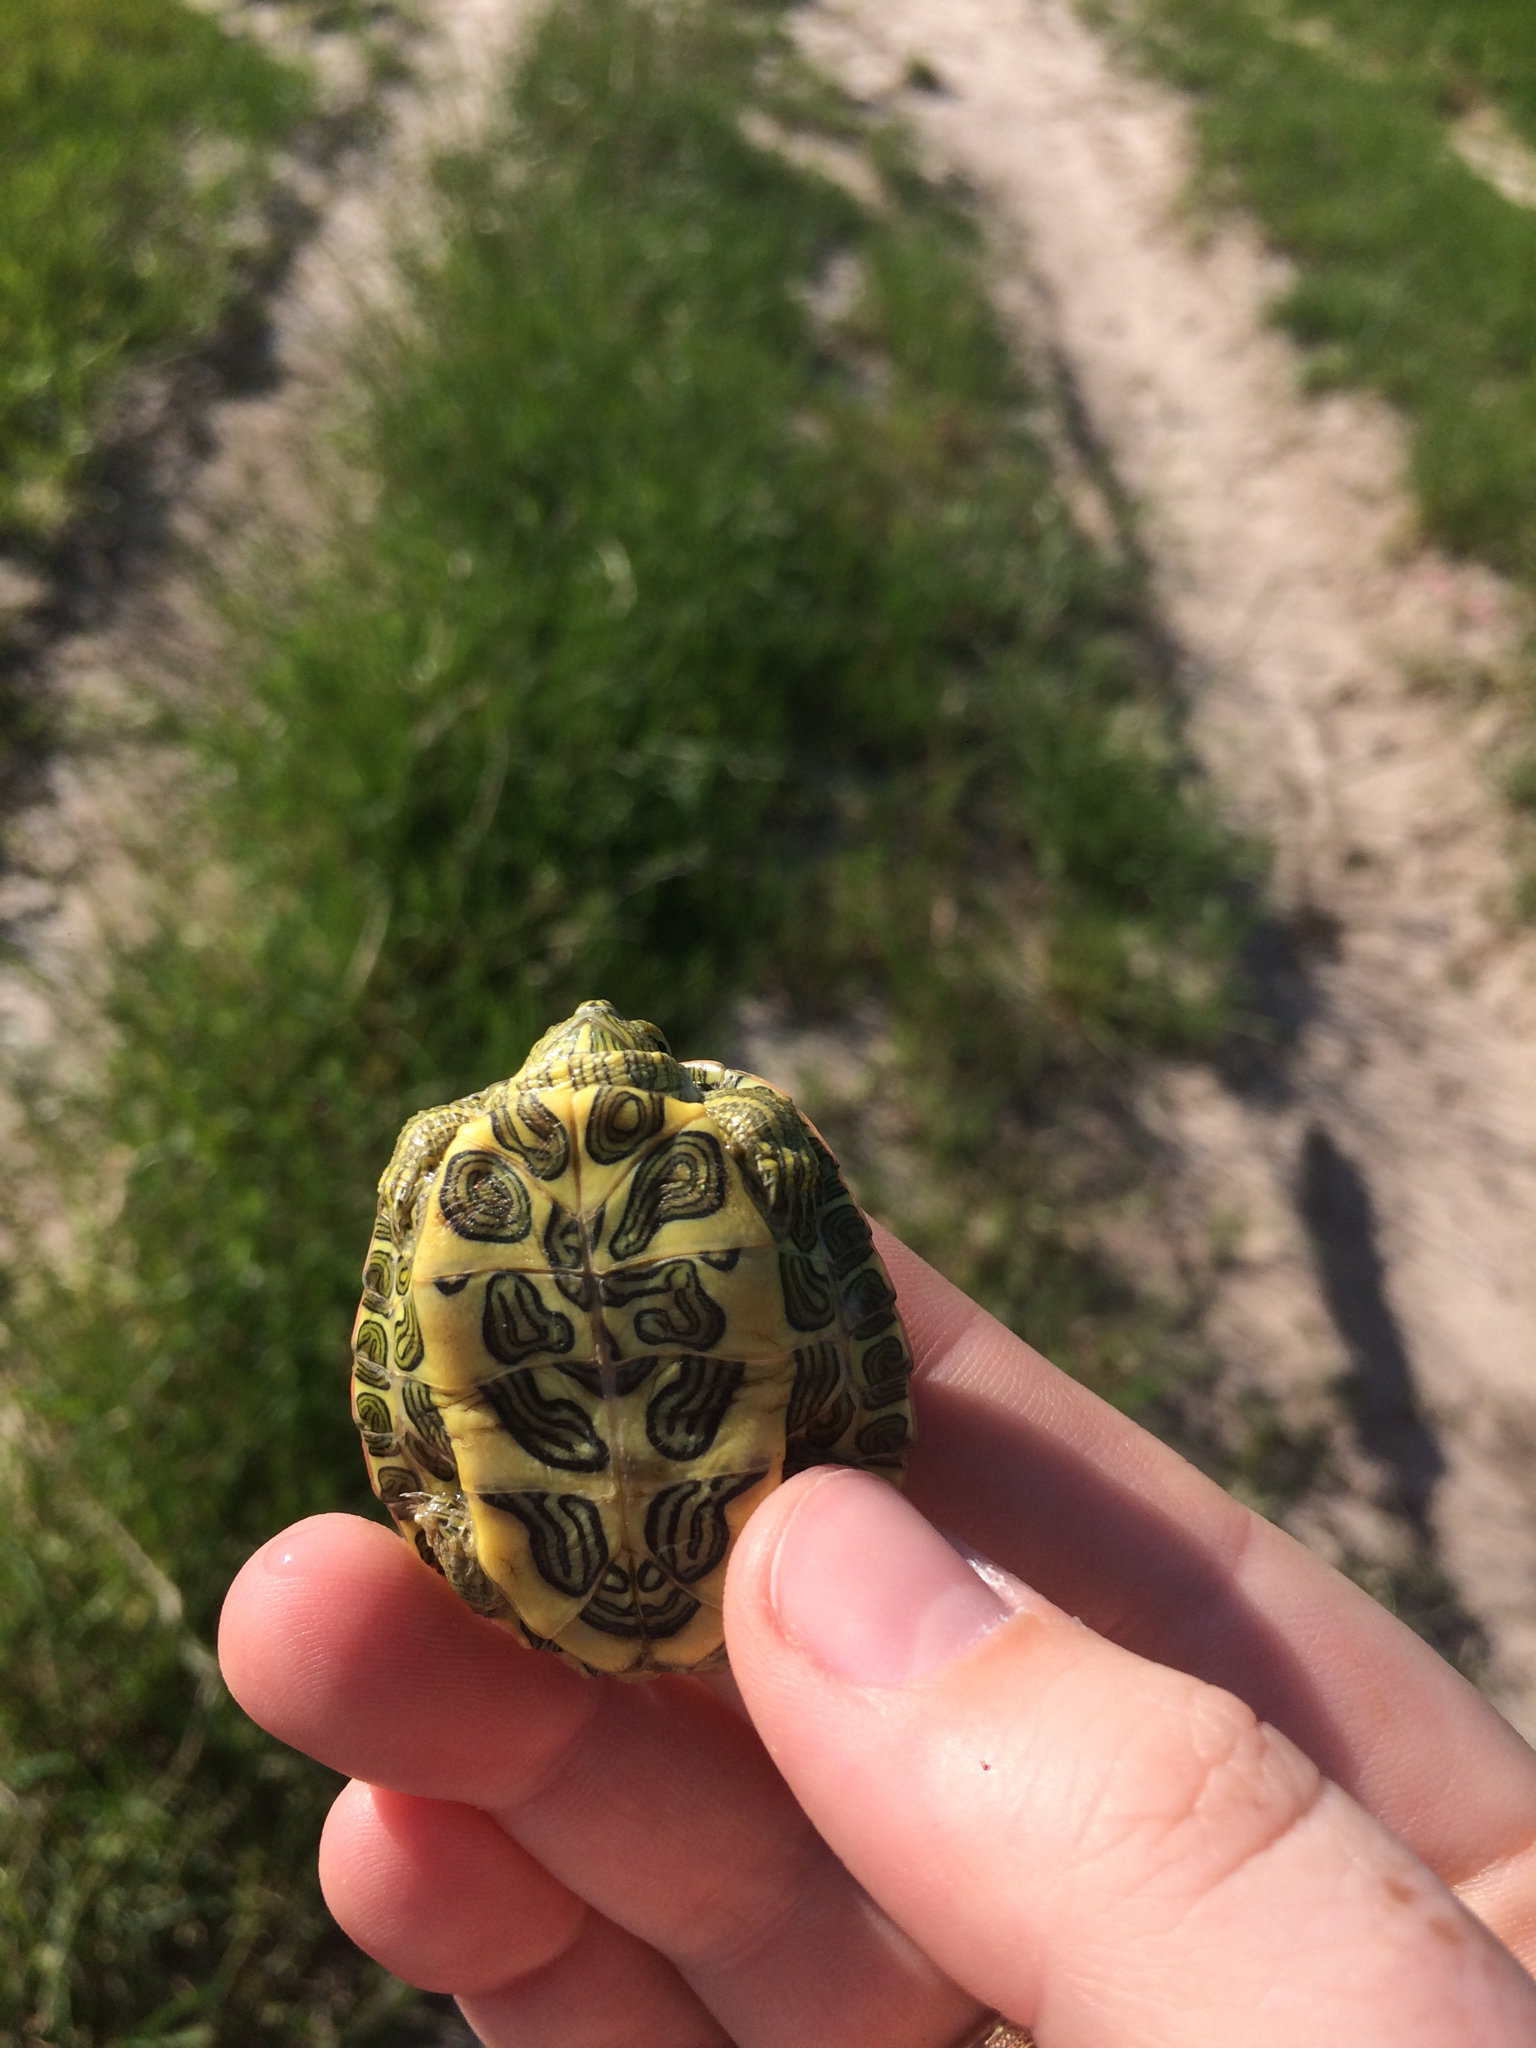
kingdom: Animalia
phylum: Chordata
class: Testudines
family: Emydidae
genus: Trachemys
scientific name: Trachemys scripta
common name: Slider
